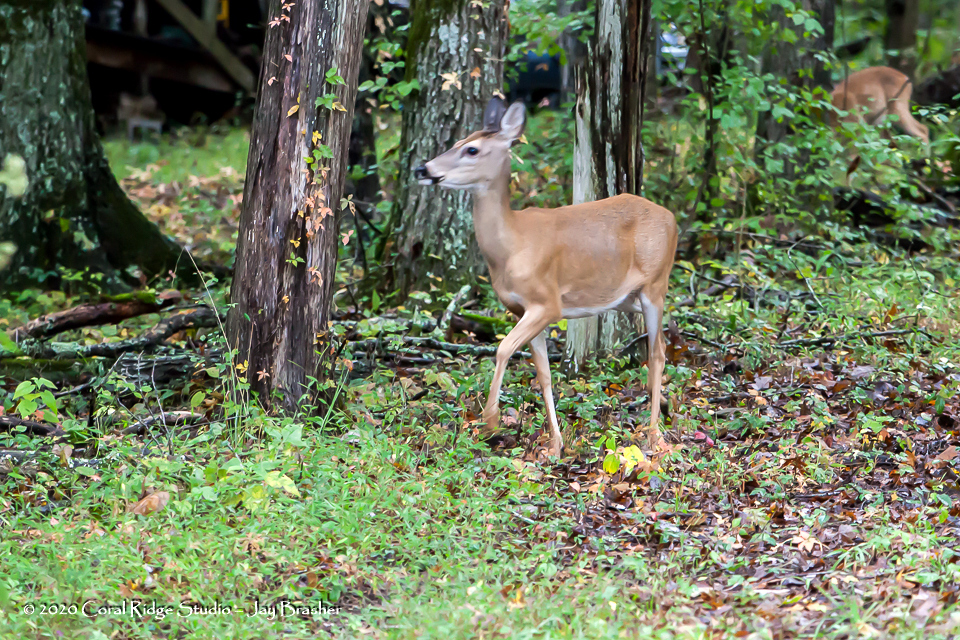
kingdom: Animalia
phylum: Chordata
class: Mammalia
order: Artiodactyla
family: Cervidae
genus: Odocoileus
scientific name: Odocoileus virginianus
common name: White-tailed deer
